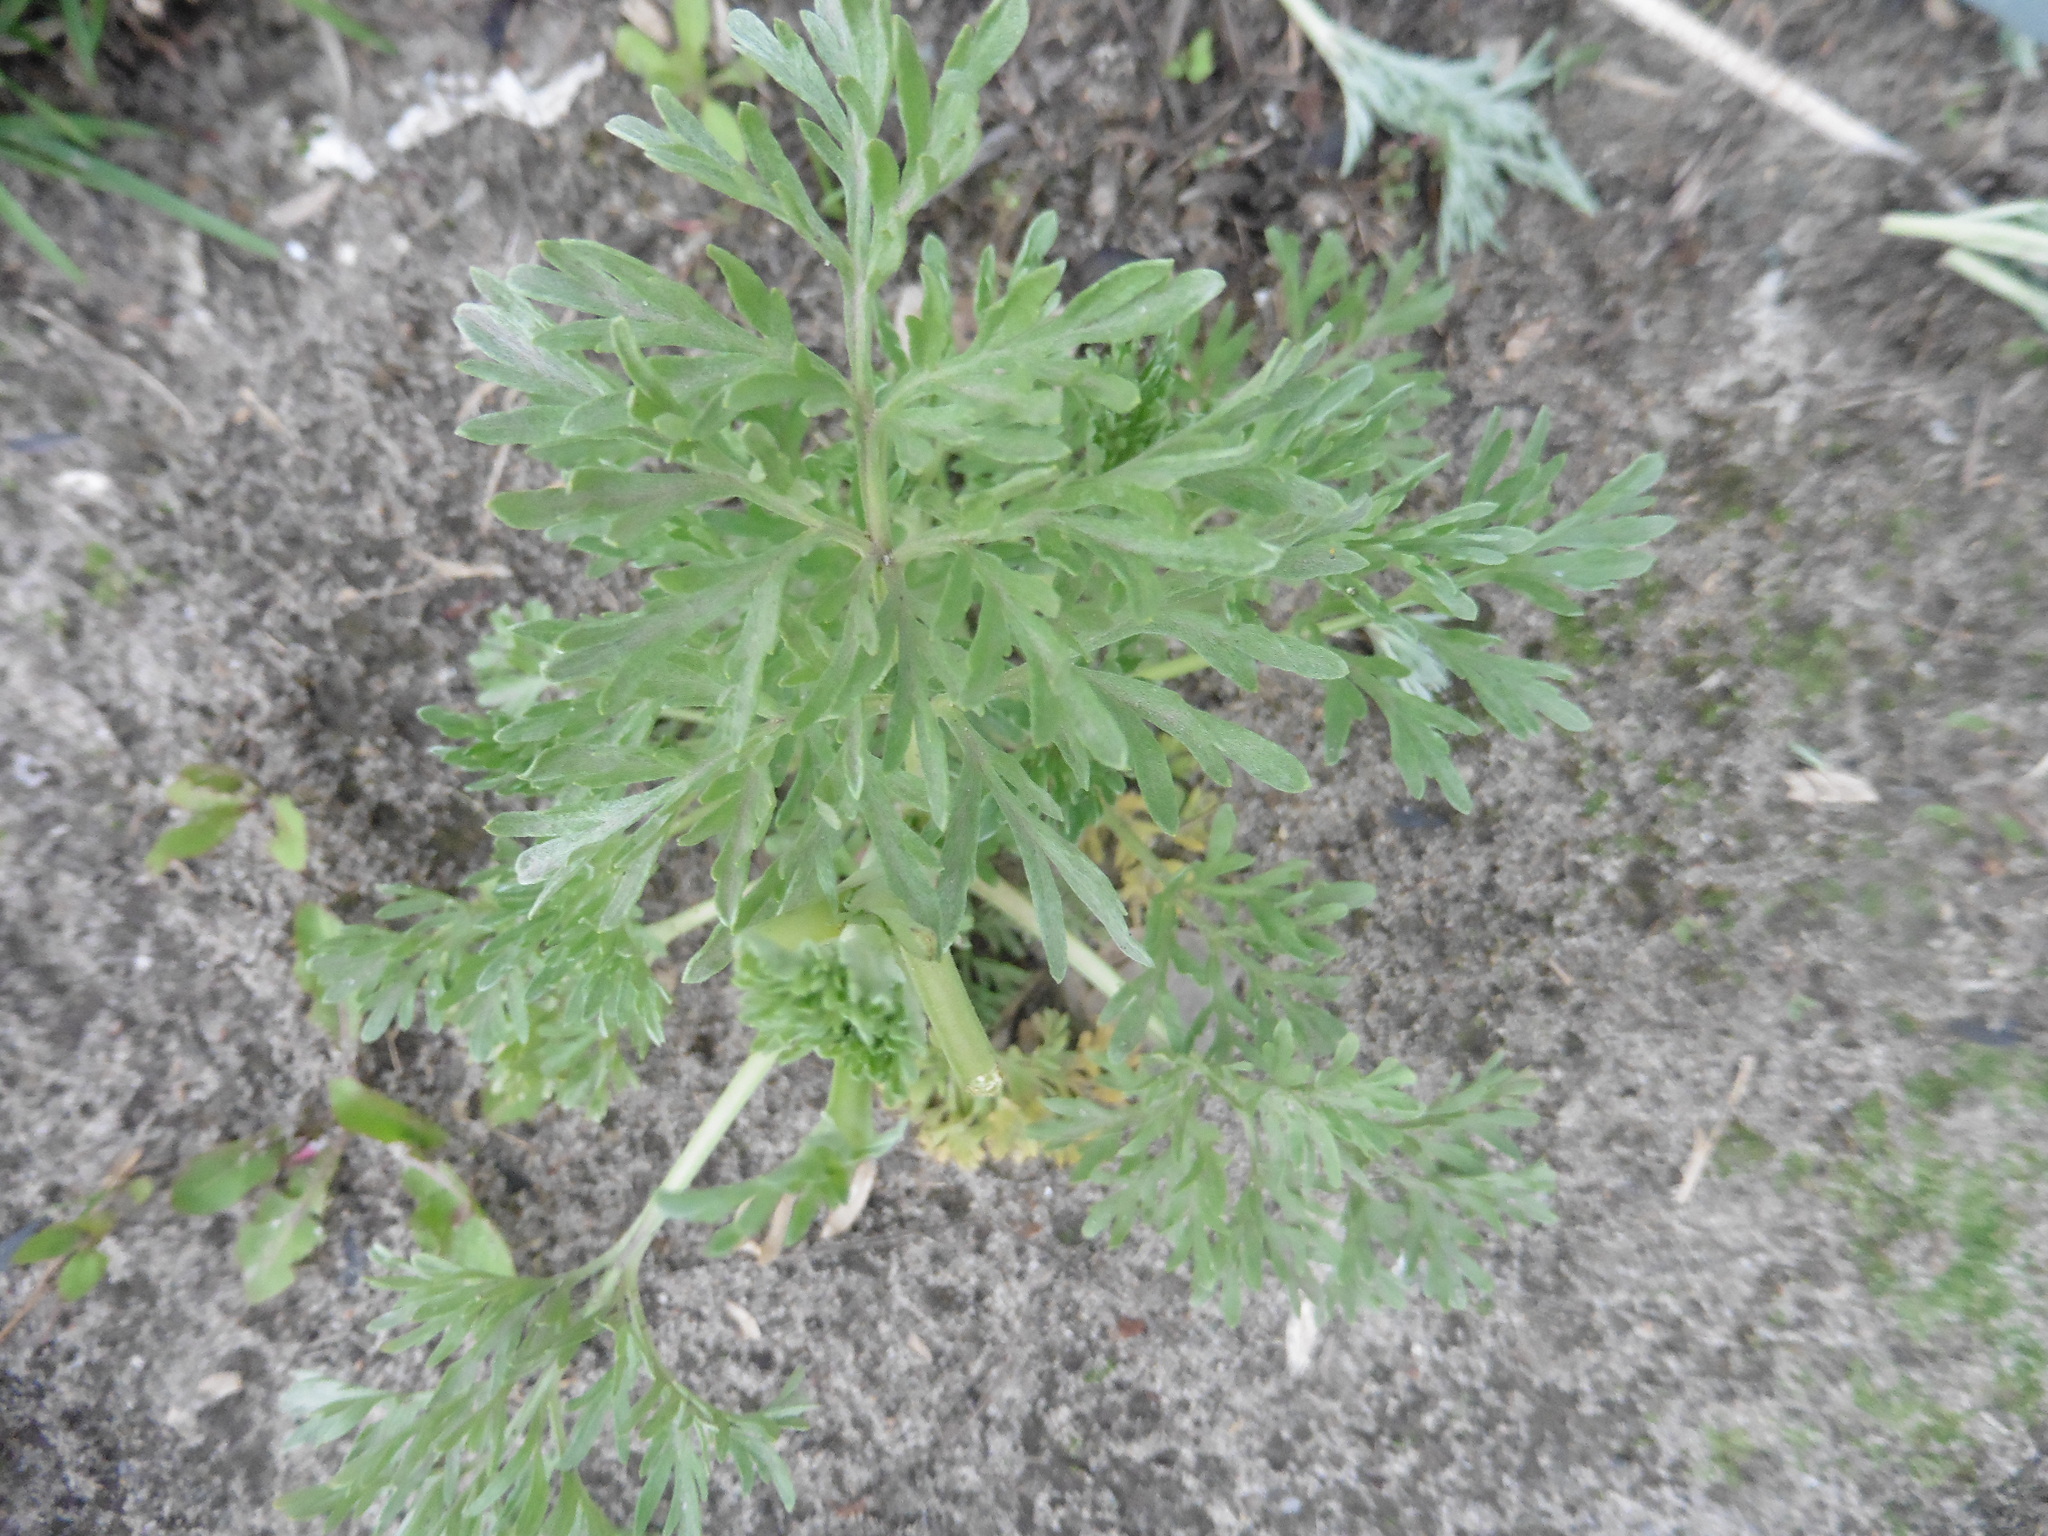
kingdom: Plantae
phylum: Tracheophyta
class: Magnoliopsida
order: Asterales
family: Asteraceae
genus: Artemisia
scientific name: Artemisia absinthium
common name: Wormwood
